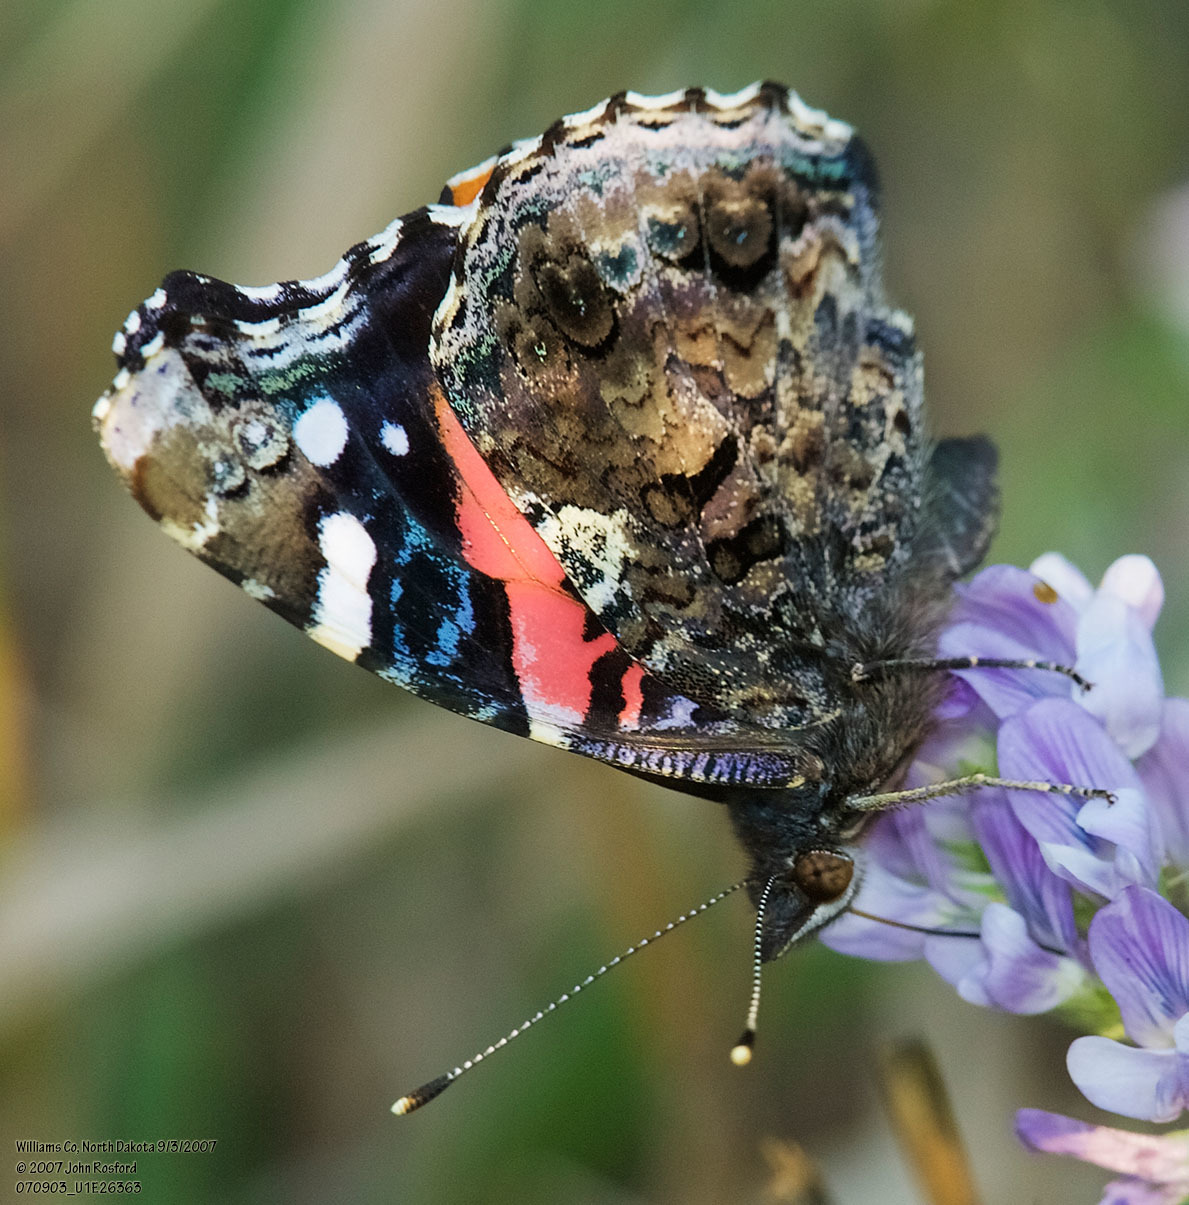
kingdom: Animalia
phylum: Arthropoda
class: Insecta
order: Lepidoptera
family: Nymphalidae
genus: Vanessa
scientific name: Vanessa atalanta
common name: Red admiral
